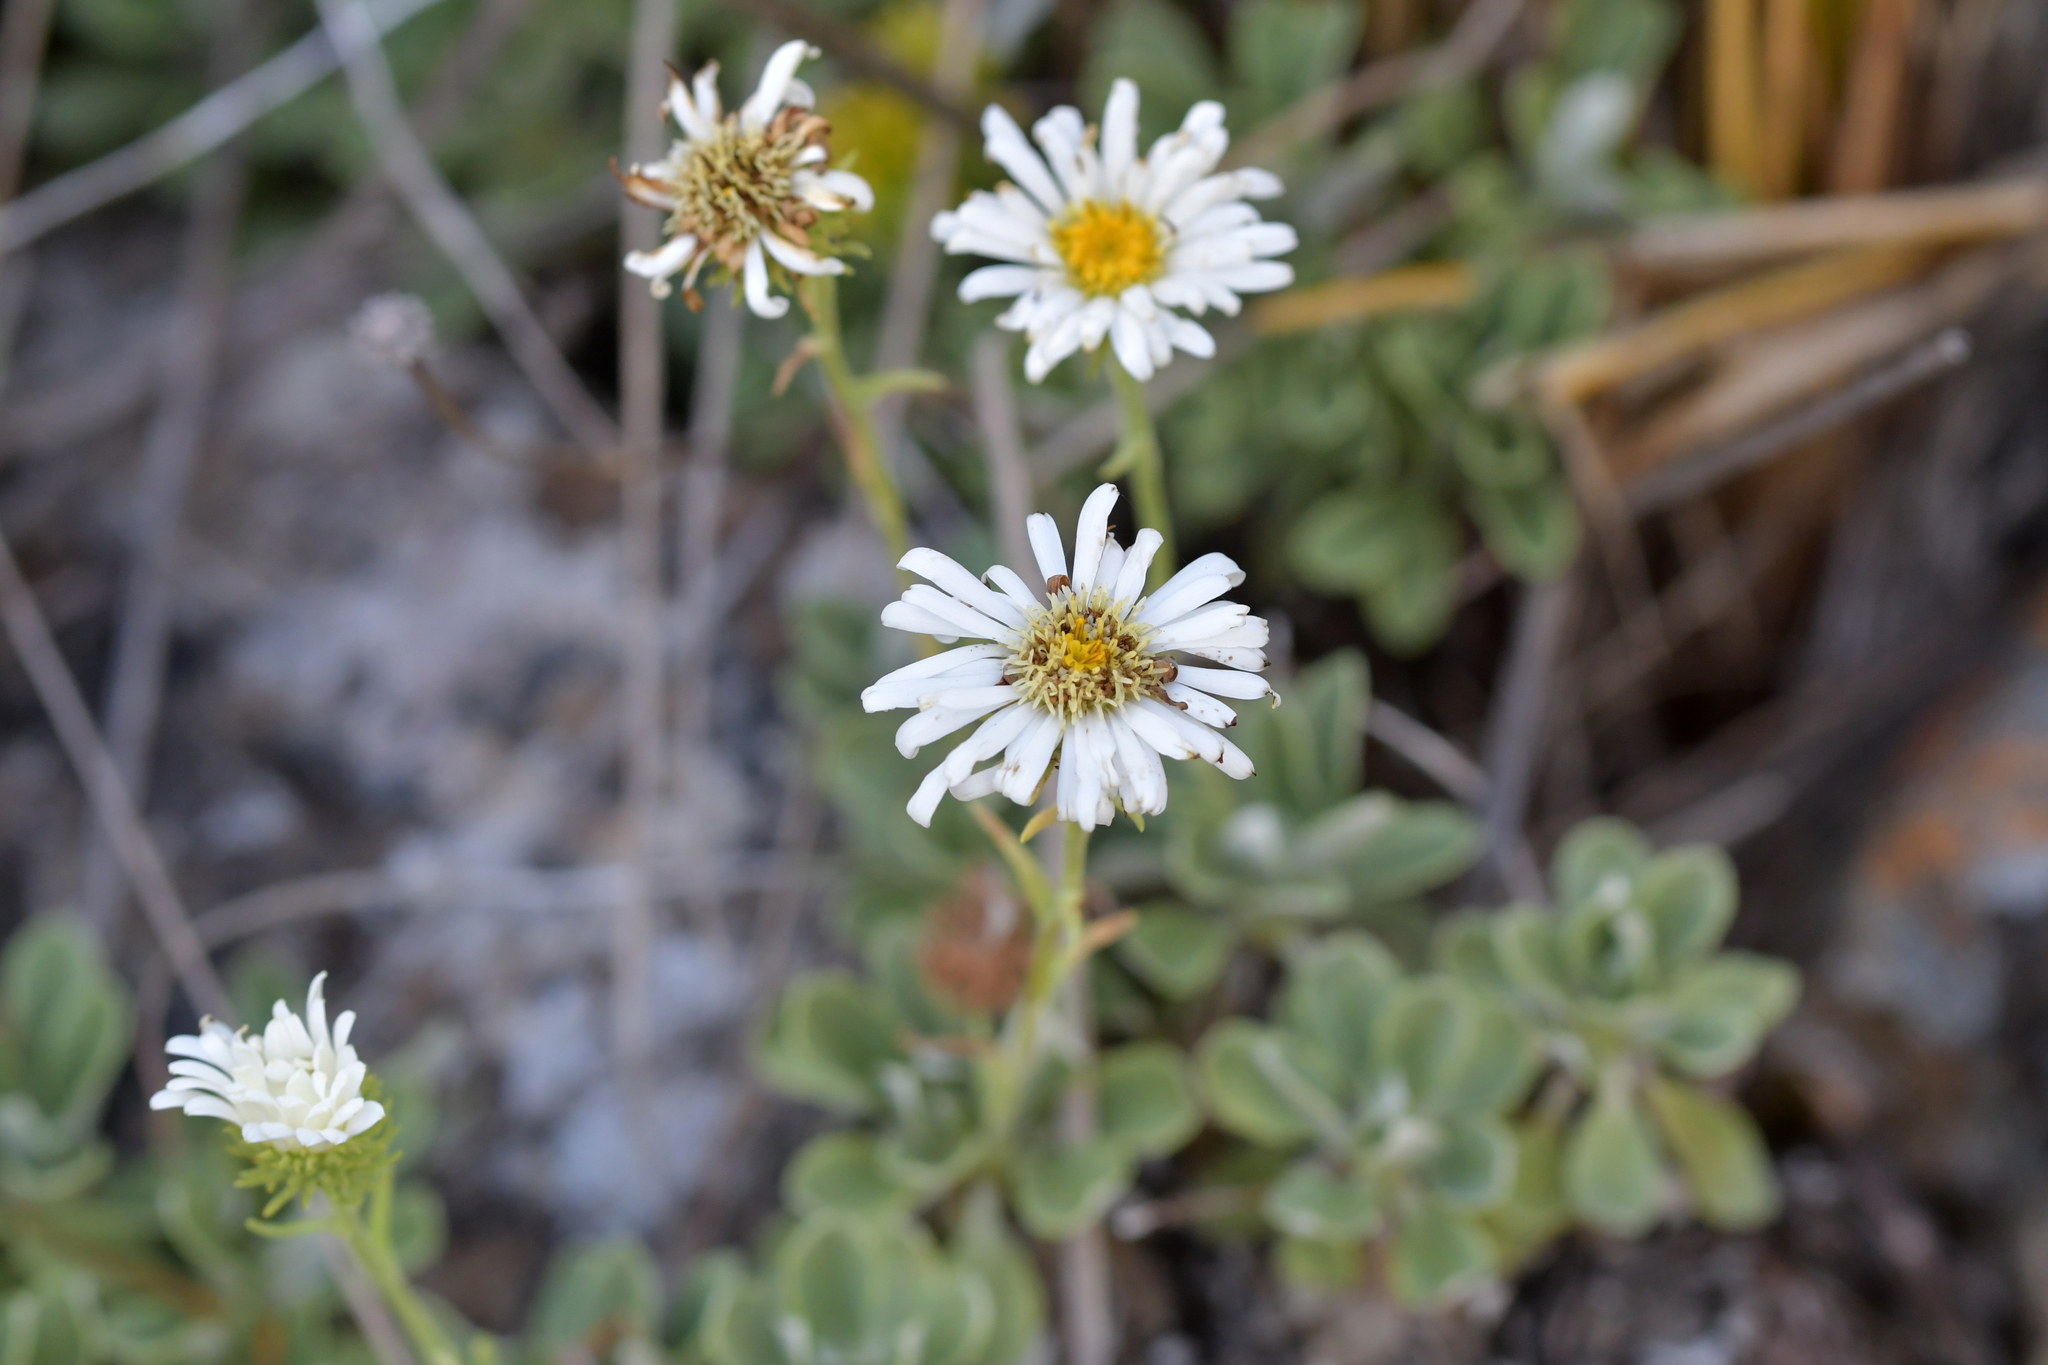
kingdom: Plantae
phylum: Tracheophyta
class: Magnoliopsida
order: Asterales
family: Asteraceae
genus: Celmisia
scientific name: Celmisia discolor
